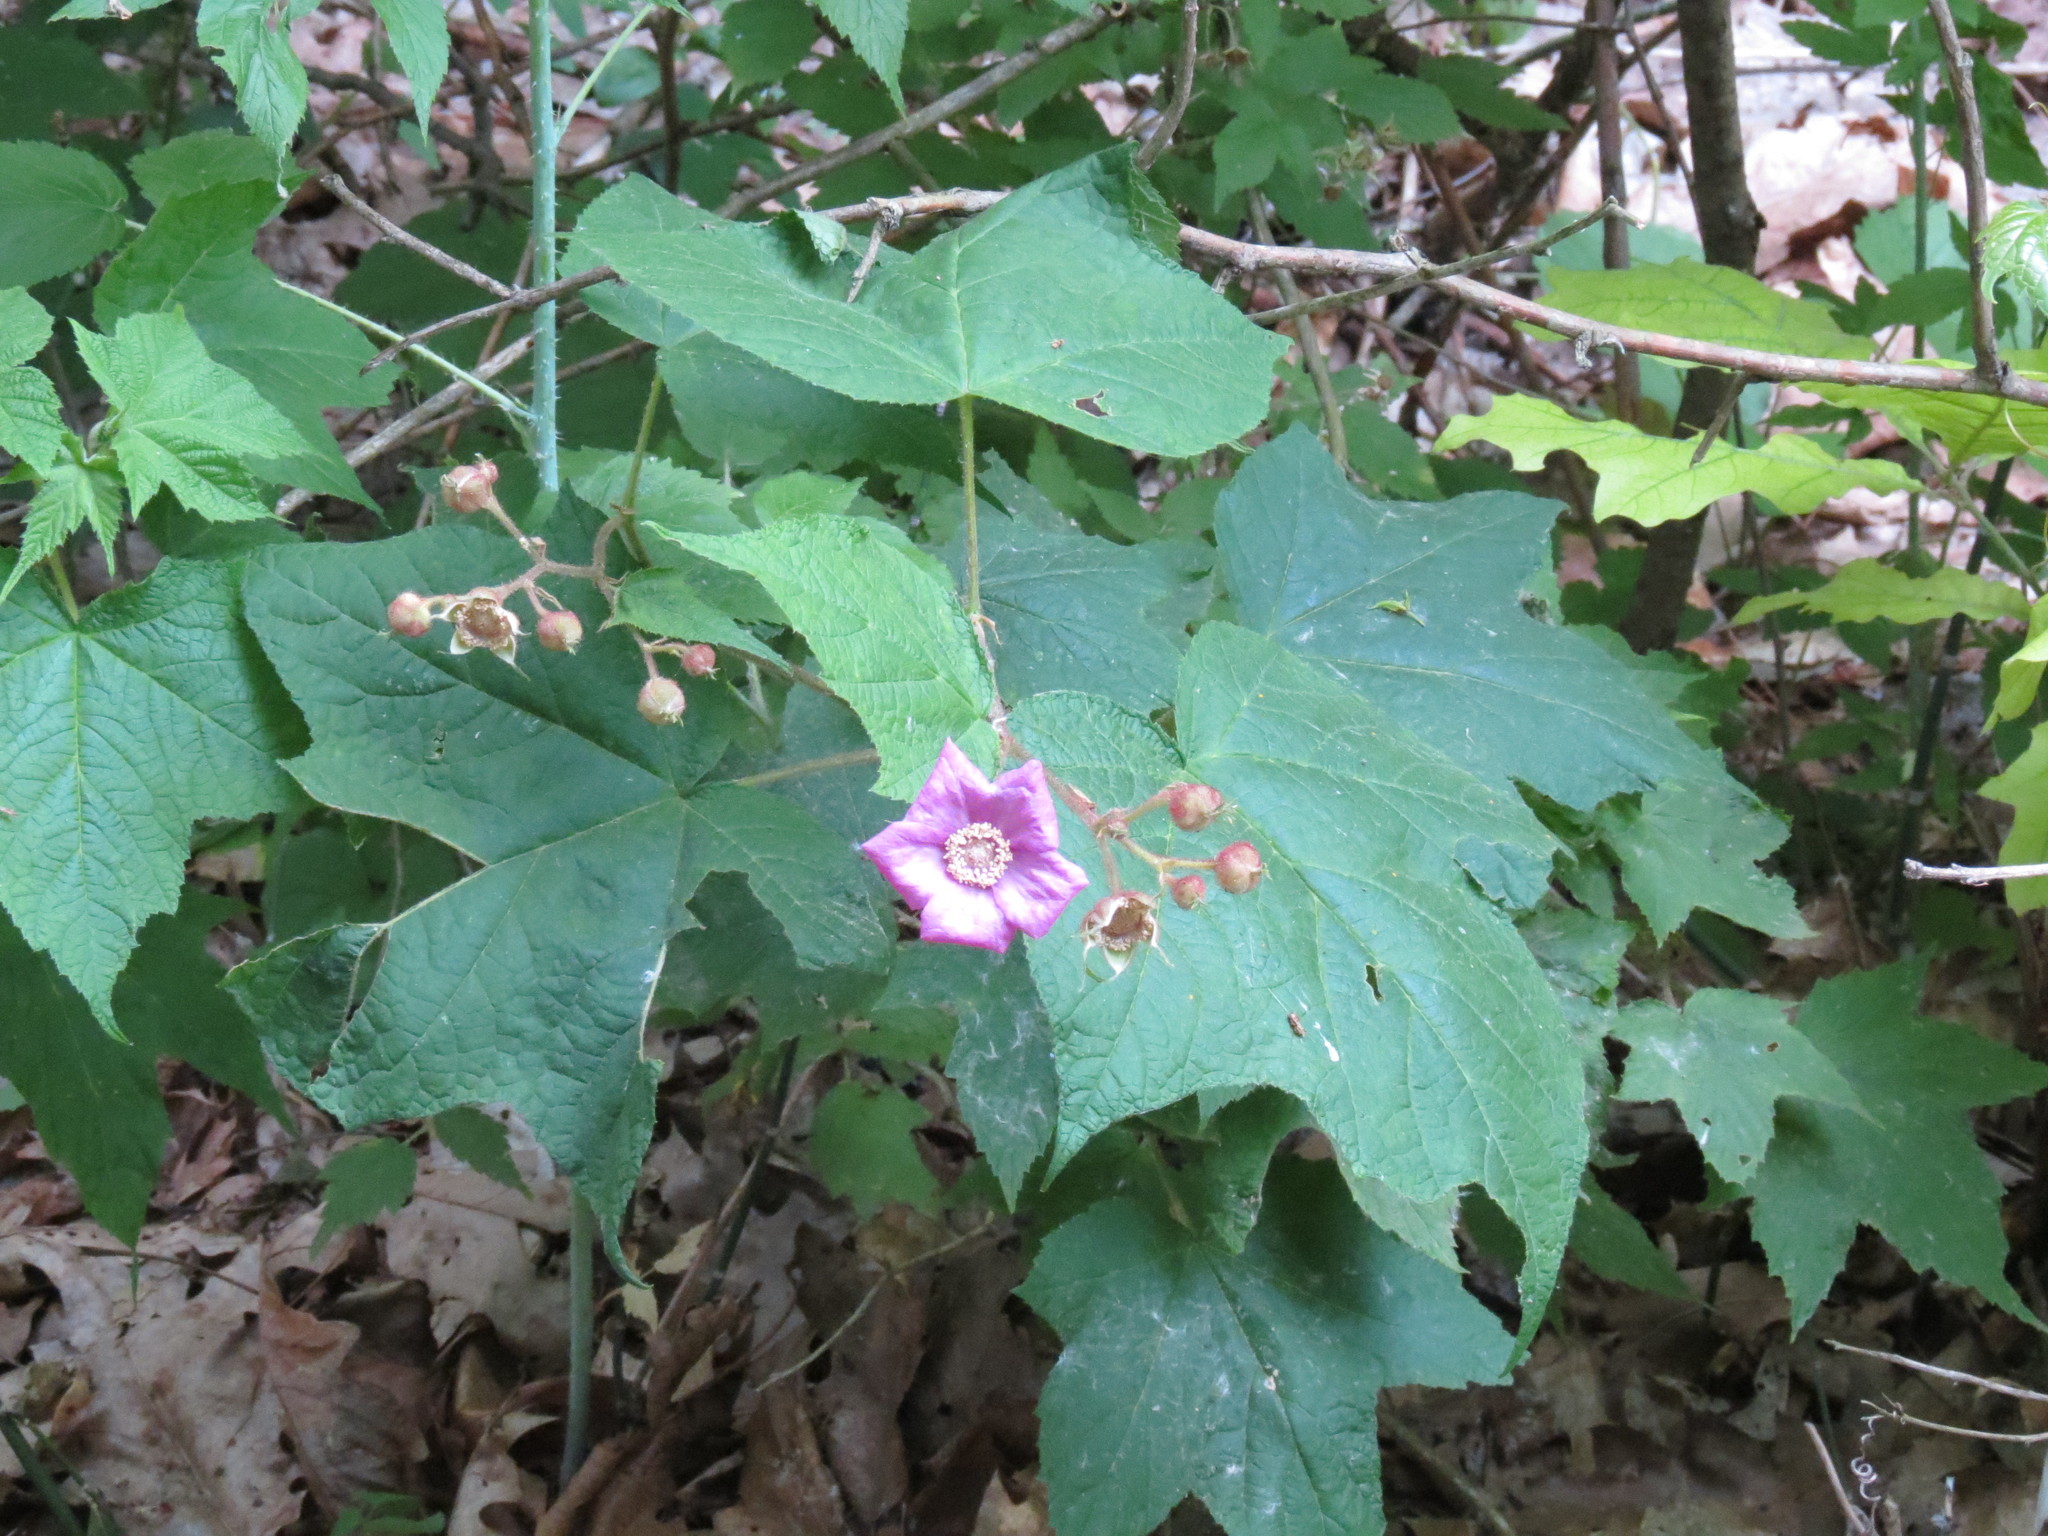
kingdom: Plantae
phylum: Tracheophyta
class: Magnoliopsida
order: Rosales
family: Rosaceae
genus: Rubus
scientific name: Rubus odoratus
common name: Purple-flowered raspberry
